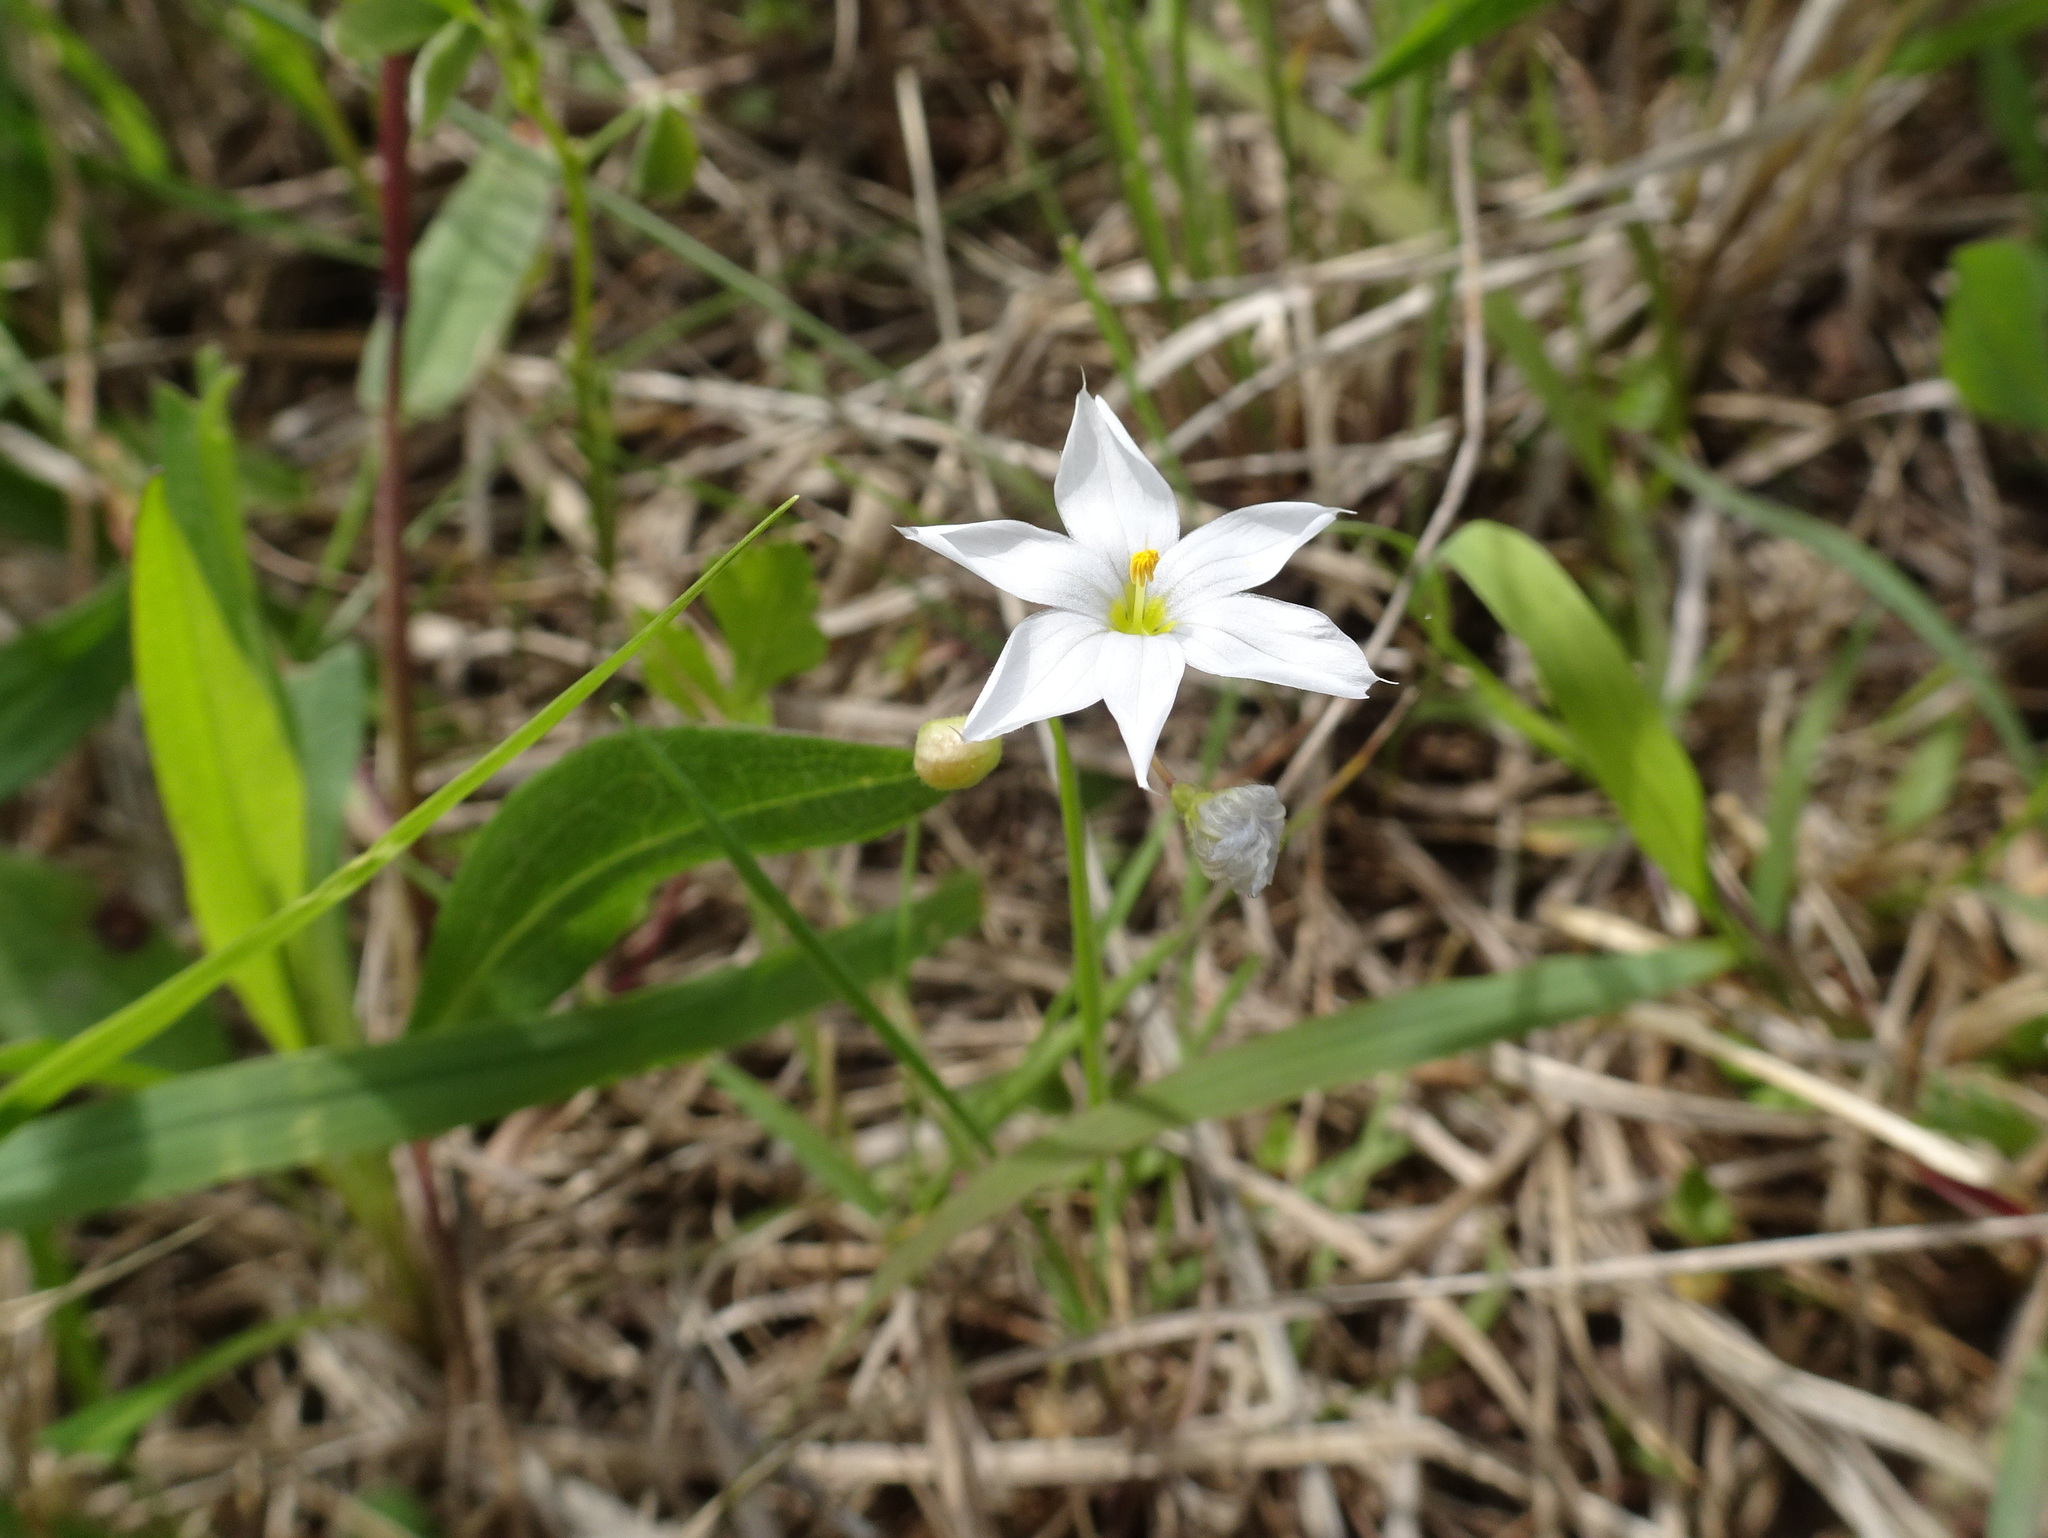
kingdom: Plantae
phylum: Tracheophyta
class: Liliopsida
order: Asparagales
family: Iridaceae
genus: Sisyrinchium
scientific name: Sisyrinchium campestre
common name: Prairie blue-eyed-grass
